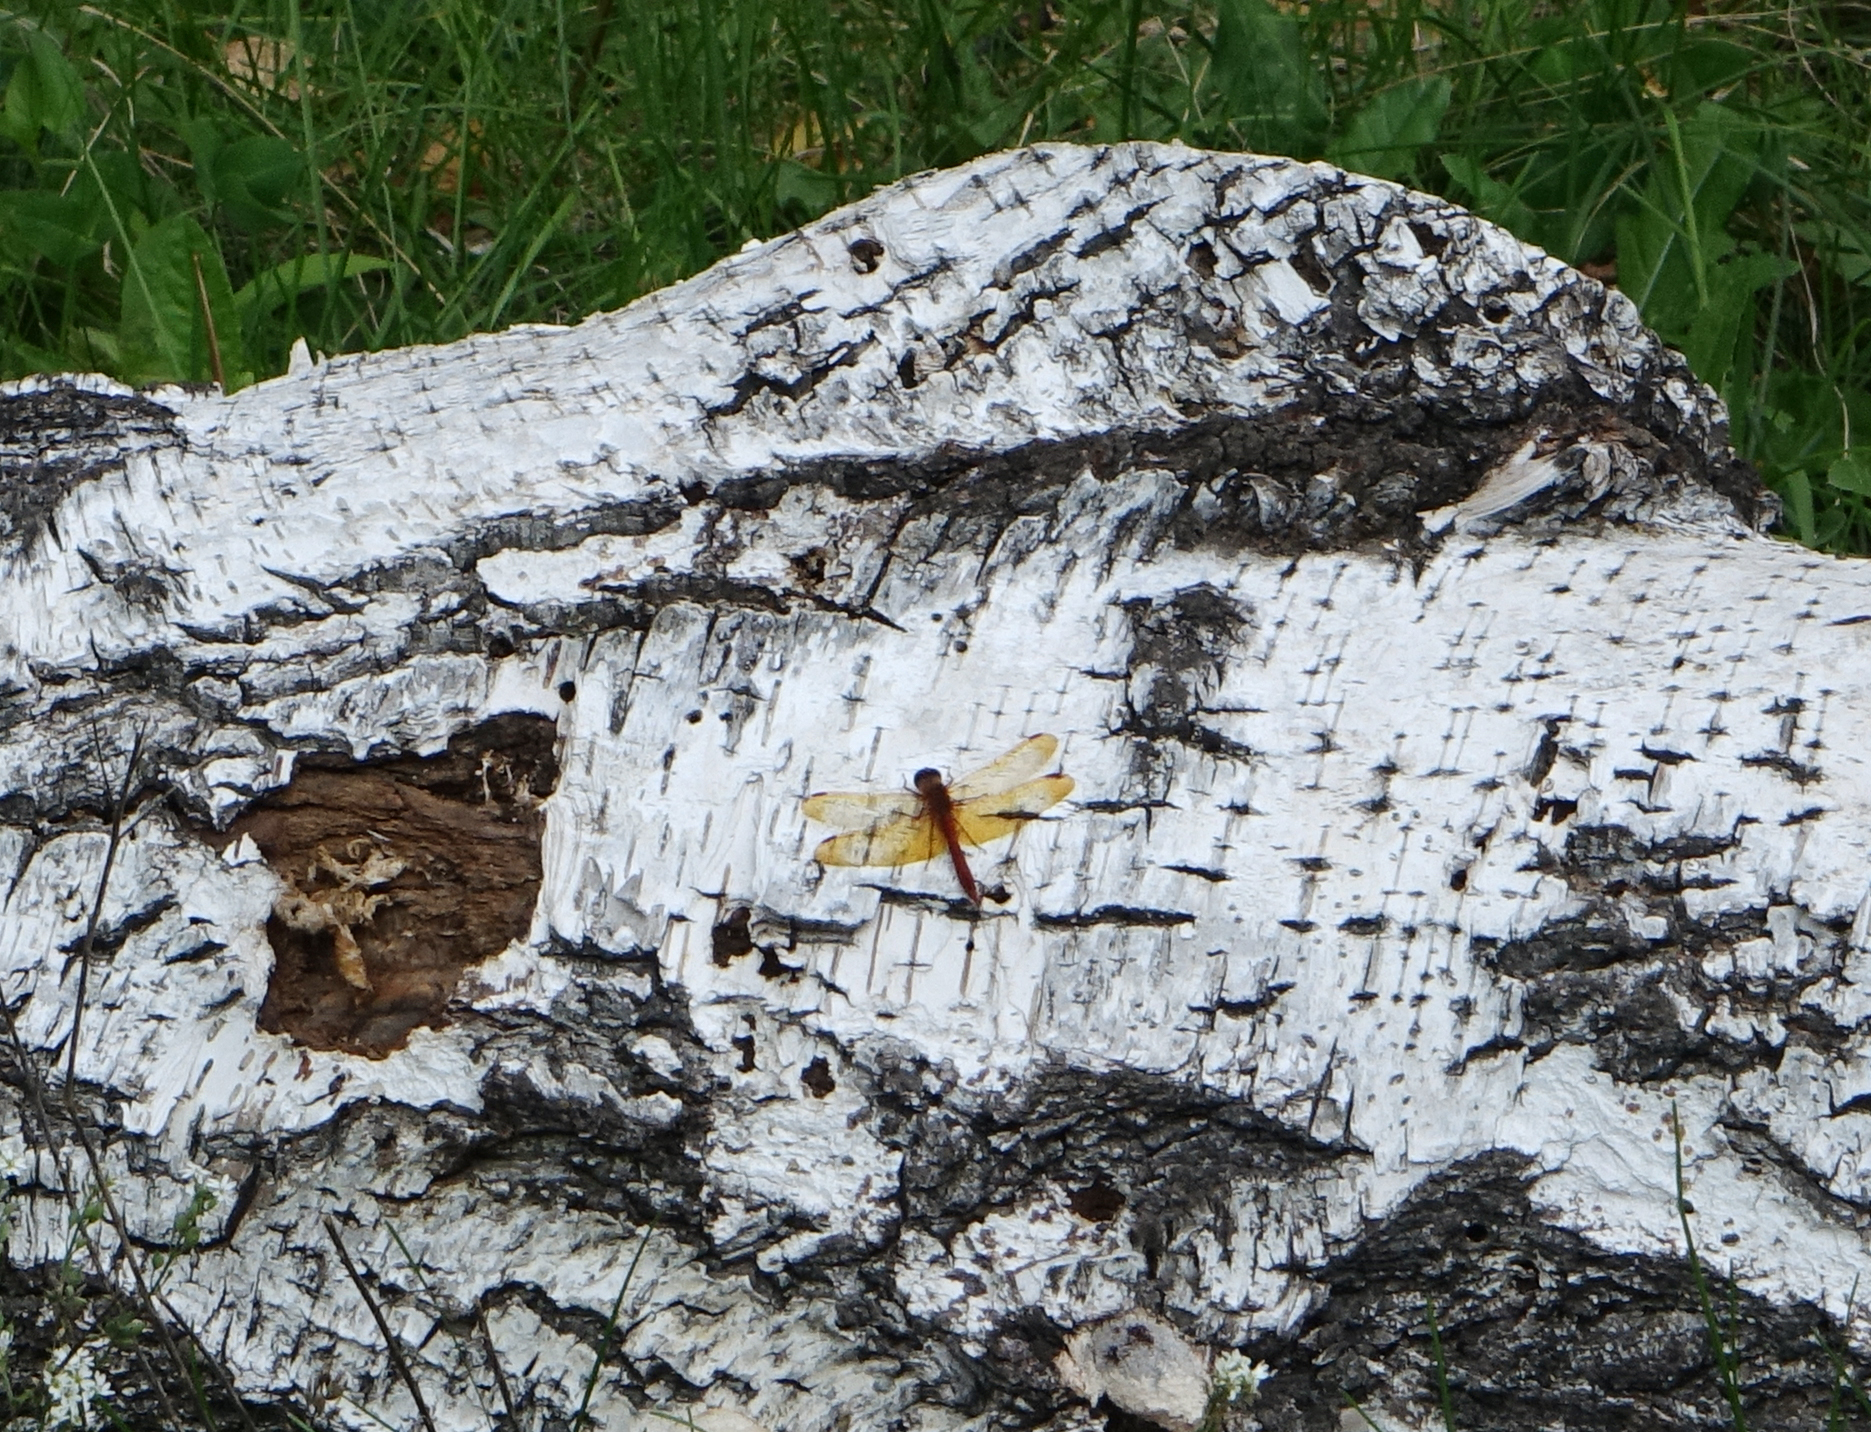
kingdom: Animalia
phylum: Arthropoda
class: Insecta
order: Odonata
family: Libellulidae
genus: Sympetrum
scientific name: Sympetrum croceolum
